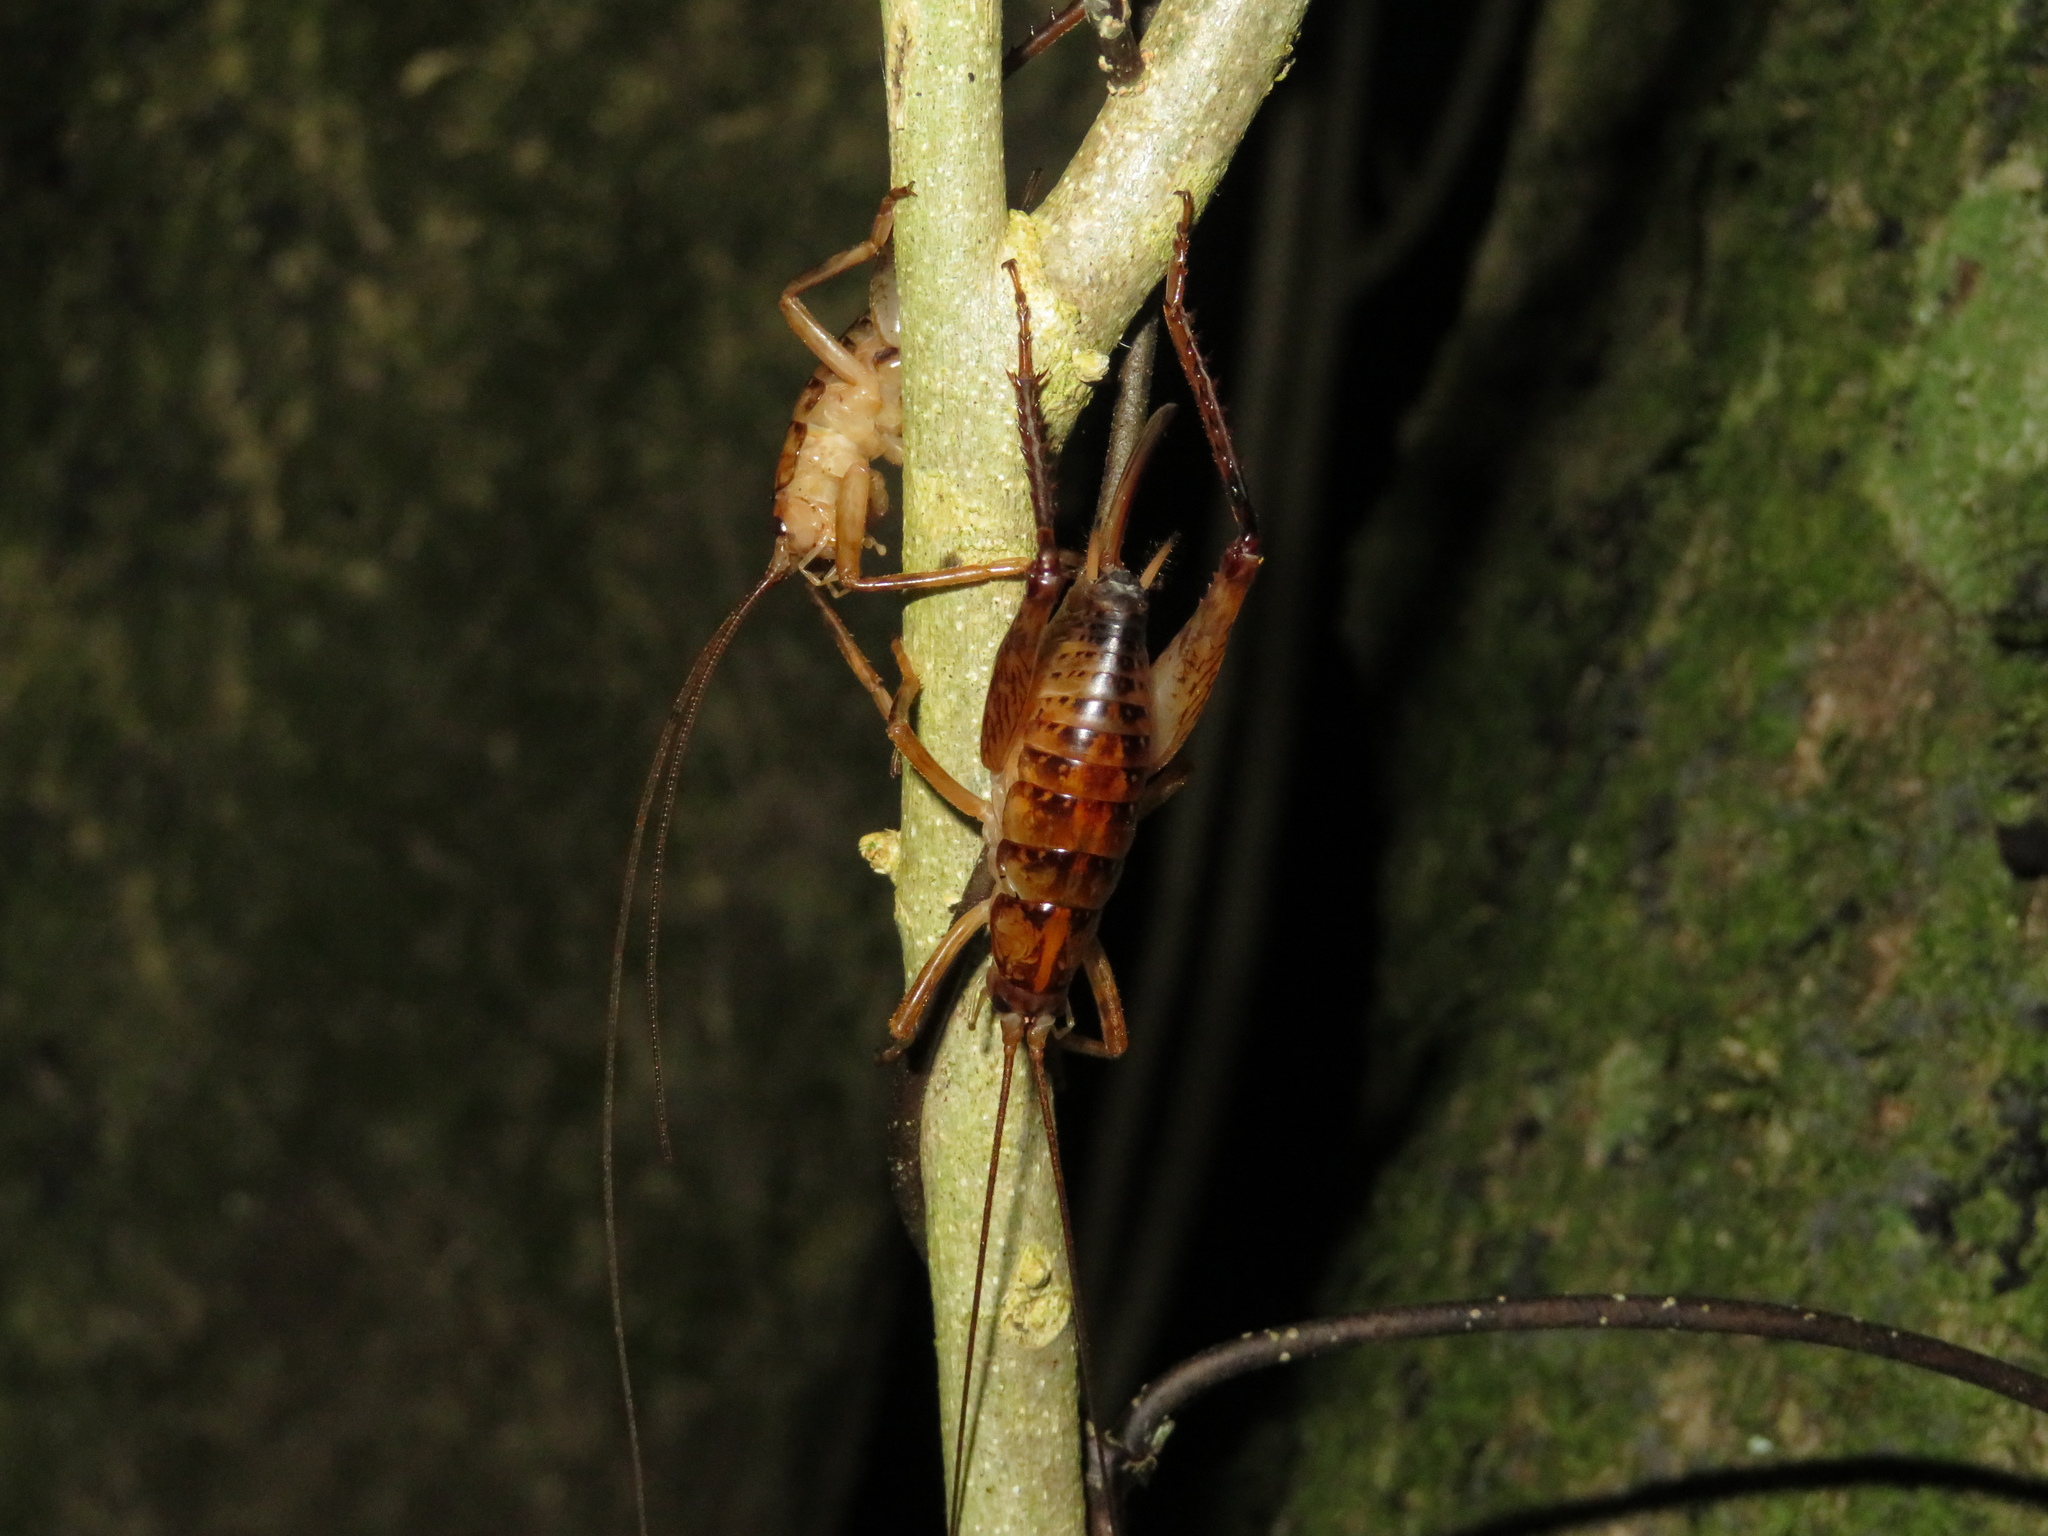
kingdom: Animalia
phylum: Arthropoda
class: Insecta
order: Orthoptera
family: Rhaphidophoridae
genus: Talitropsis
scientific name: Talitropsis sedilloti
